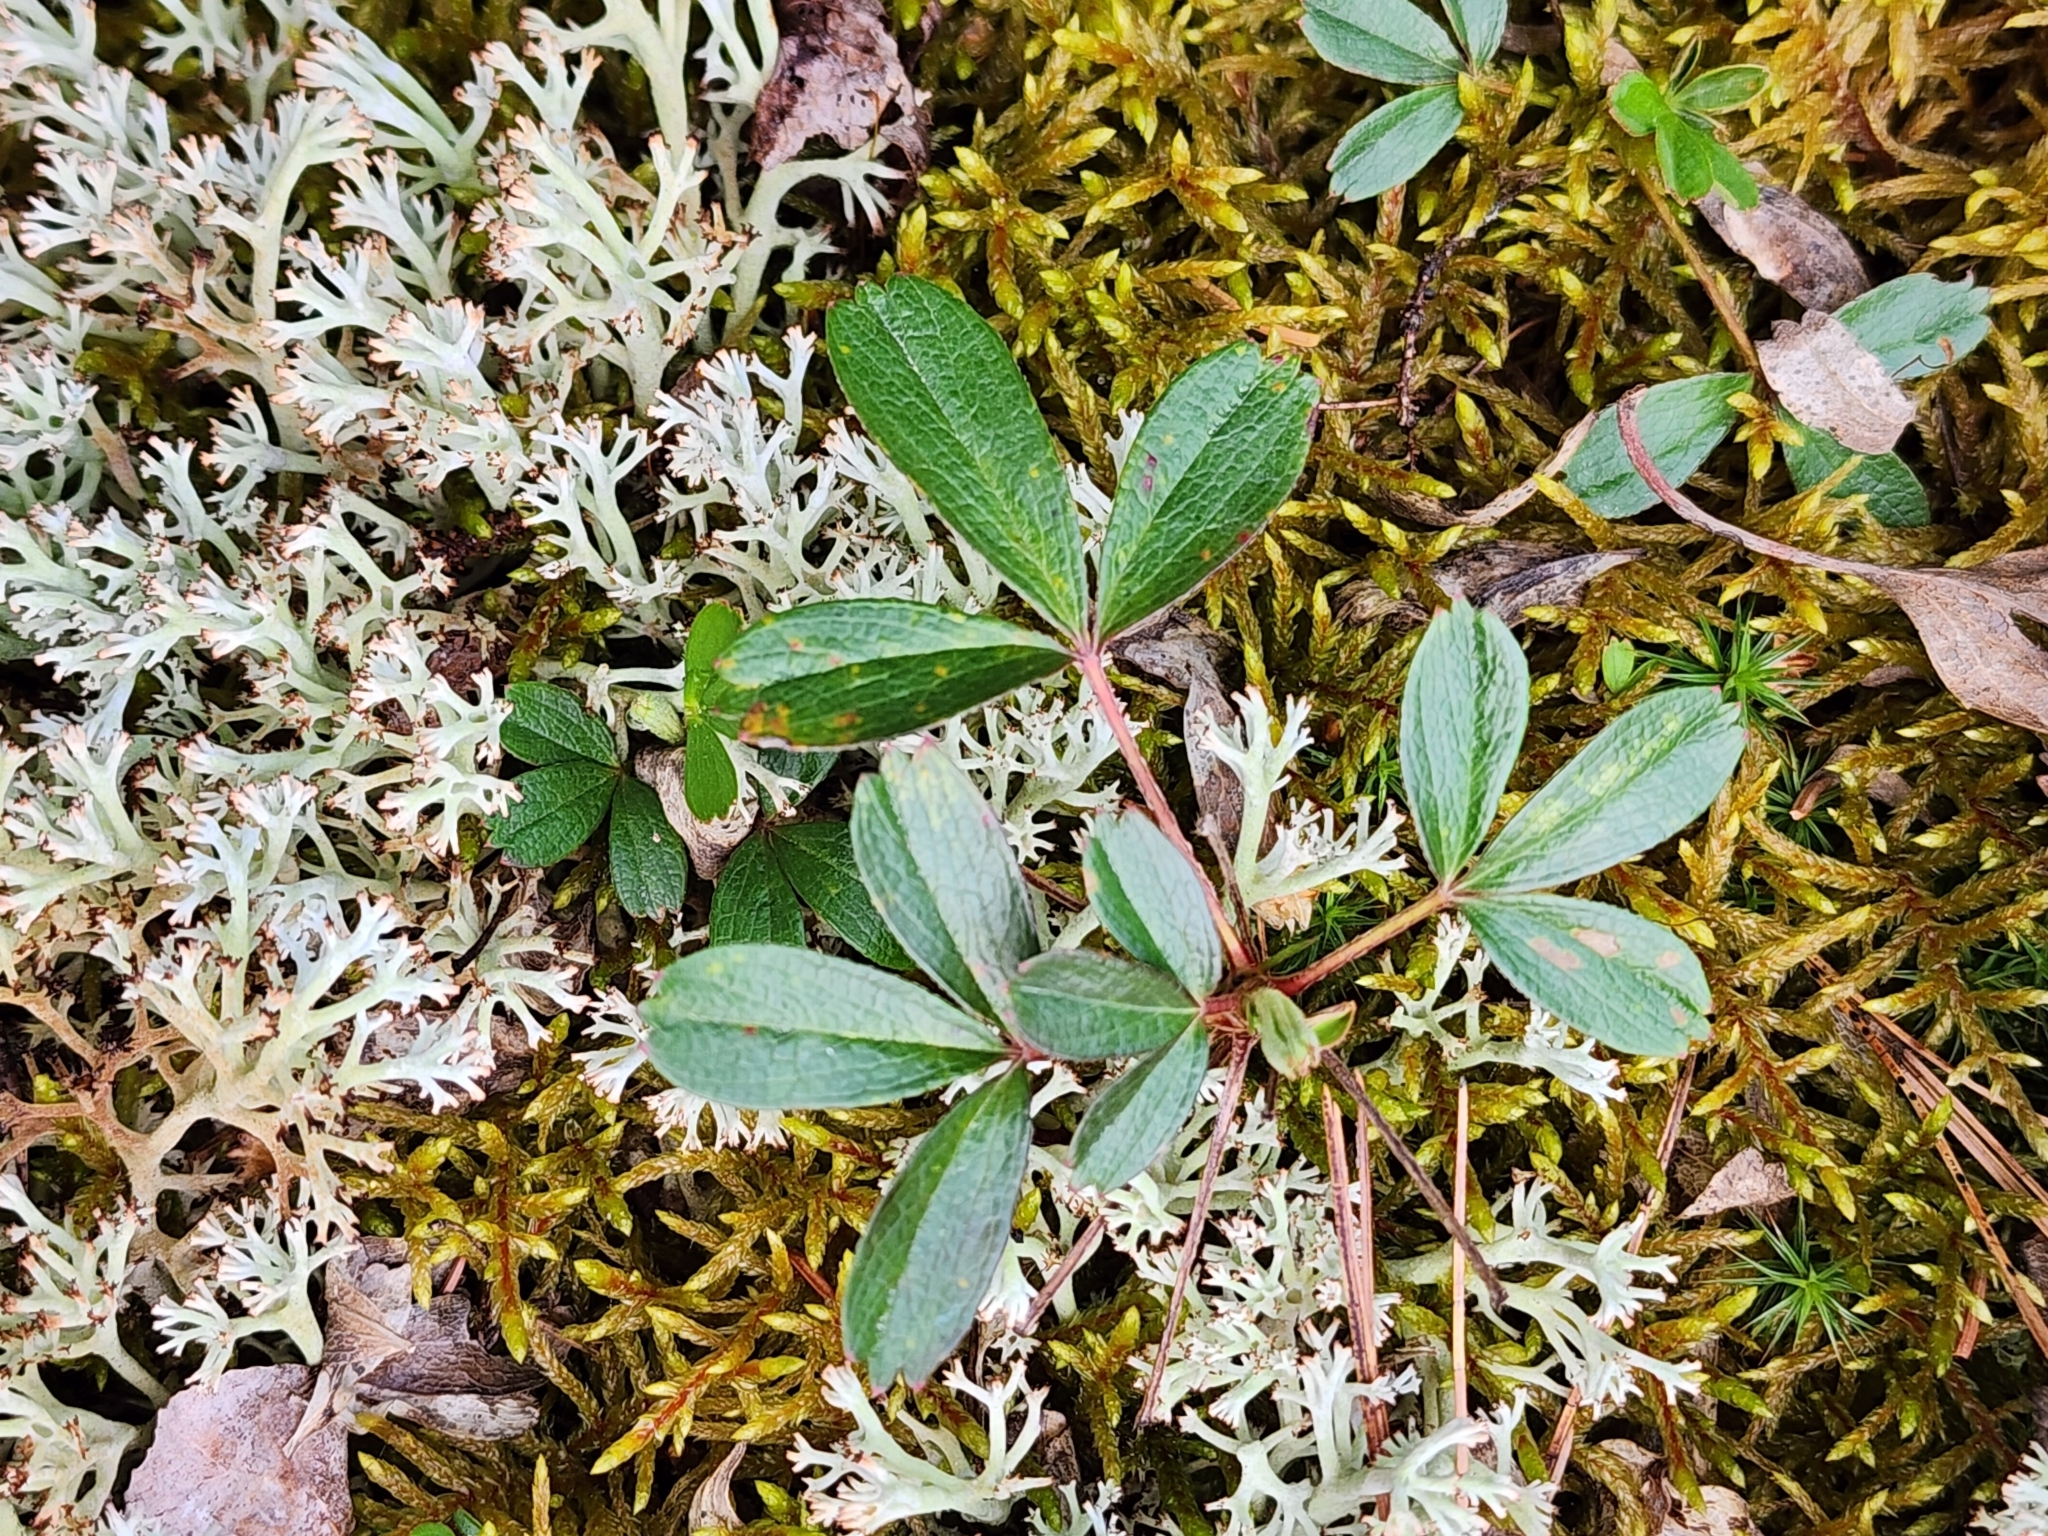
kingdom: Plantae
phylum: Tracheophyta
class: Magnoliopsida
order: Rosales
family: Rosaceae
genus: Sibbaldia
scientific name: Sibbaldia tridentata
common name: Three-toothed cinquefoil
